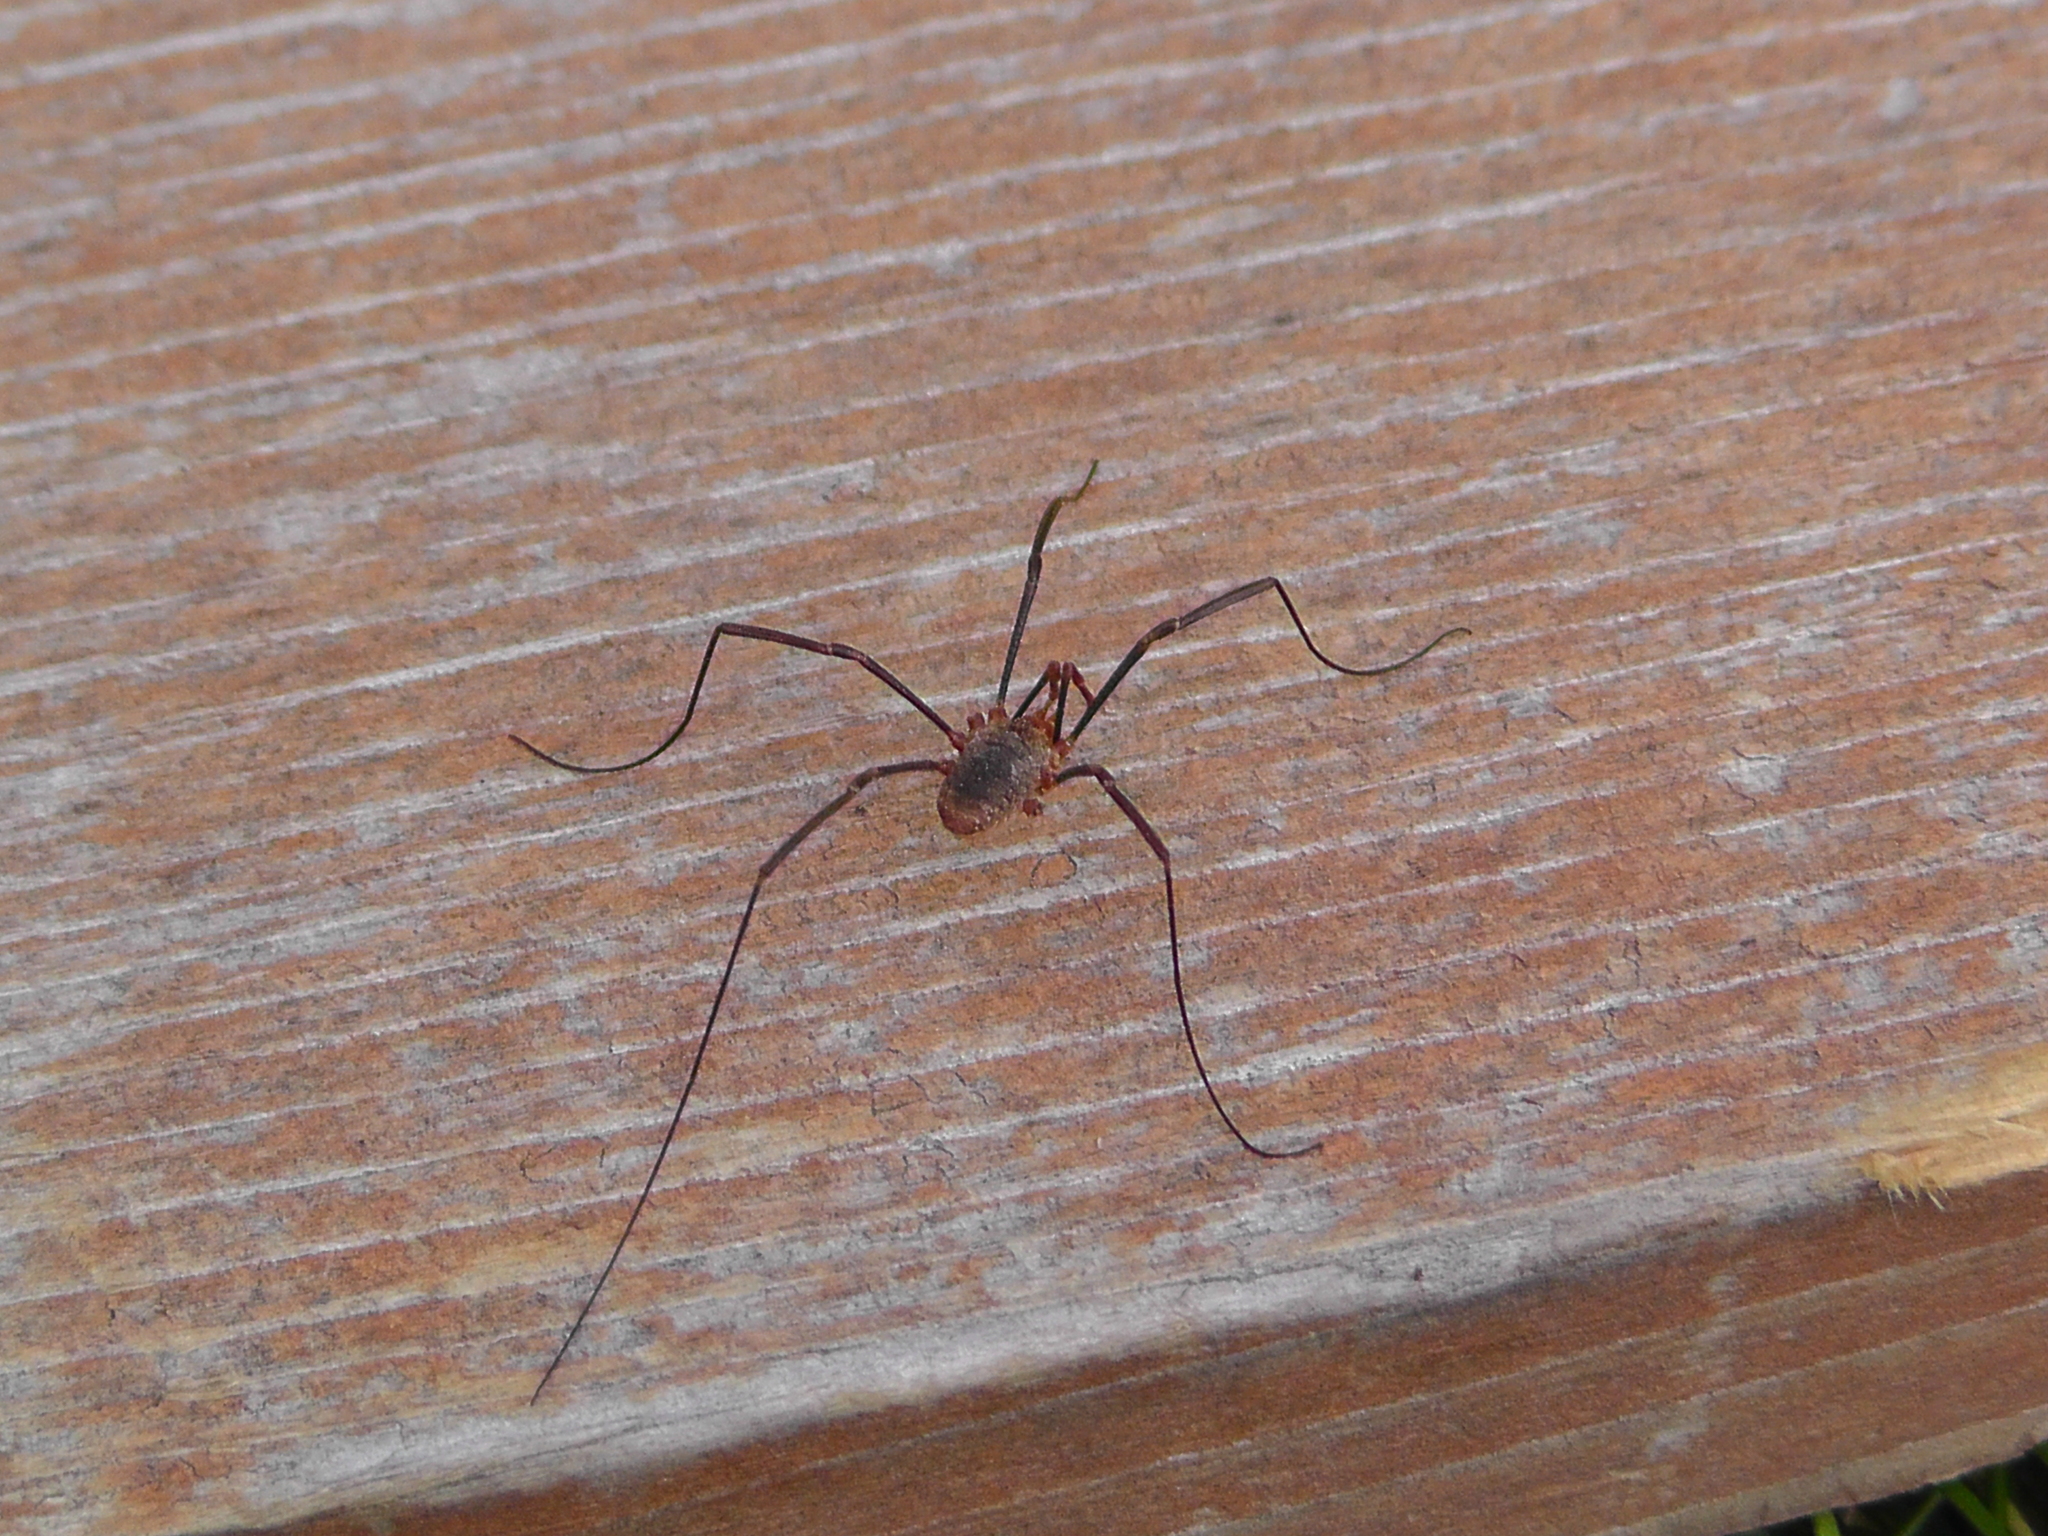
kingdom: Animalia
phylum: Arthropoda
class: Arachnida
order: Opiliones
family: Phalangiidae
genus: Phalangium
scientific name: Phalangium opilio
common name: Daddy longleg
